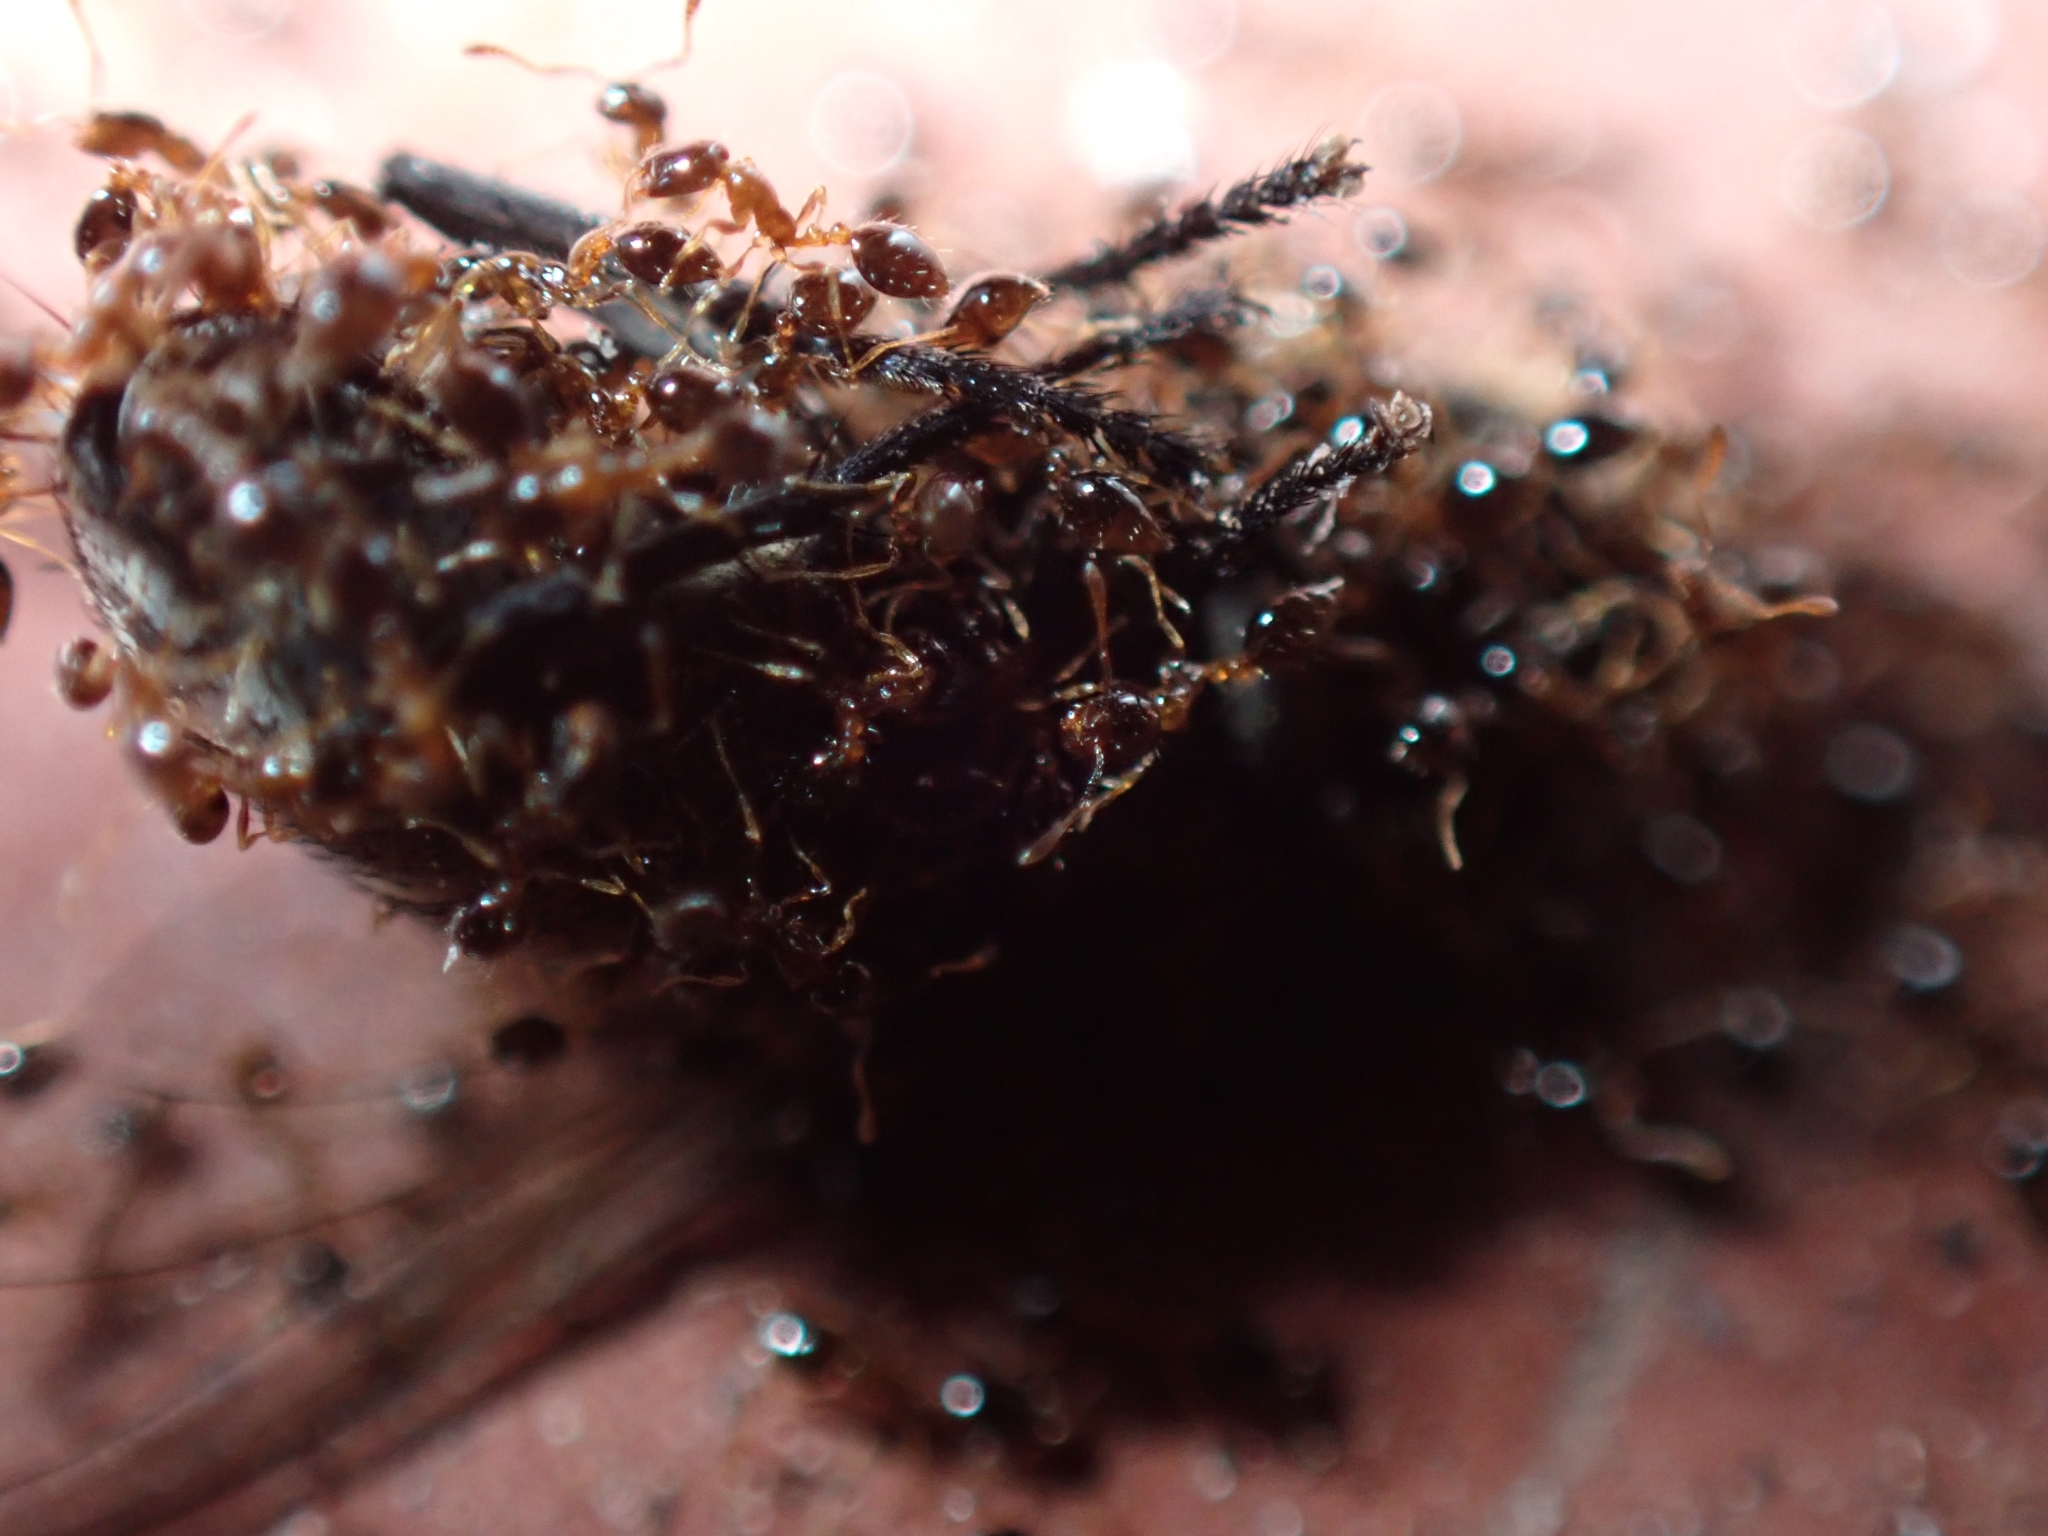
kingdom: Animalia
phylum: Arthropoda
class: Insecta
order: Hymenoptera
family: Formicidae
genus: Monomorium
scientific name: Monomorium floricola
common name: Bicolored trailing ant
